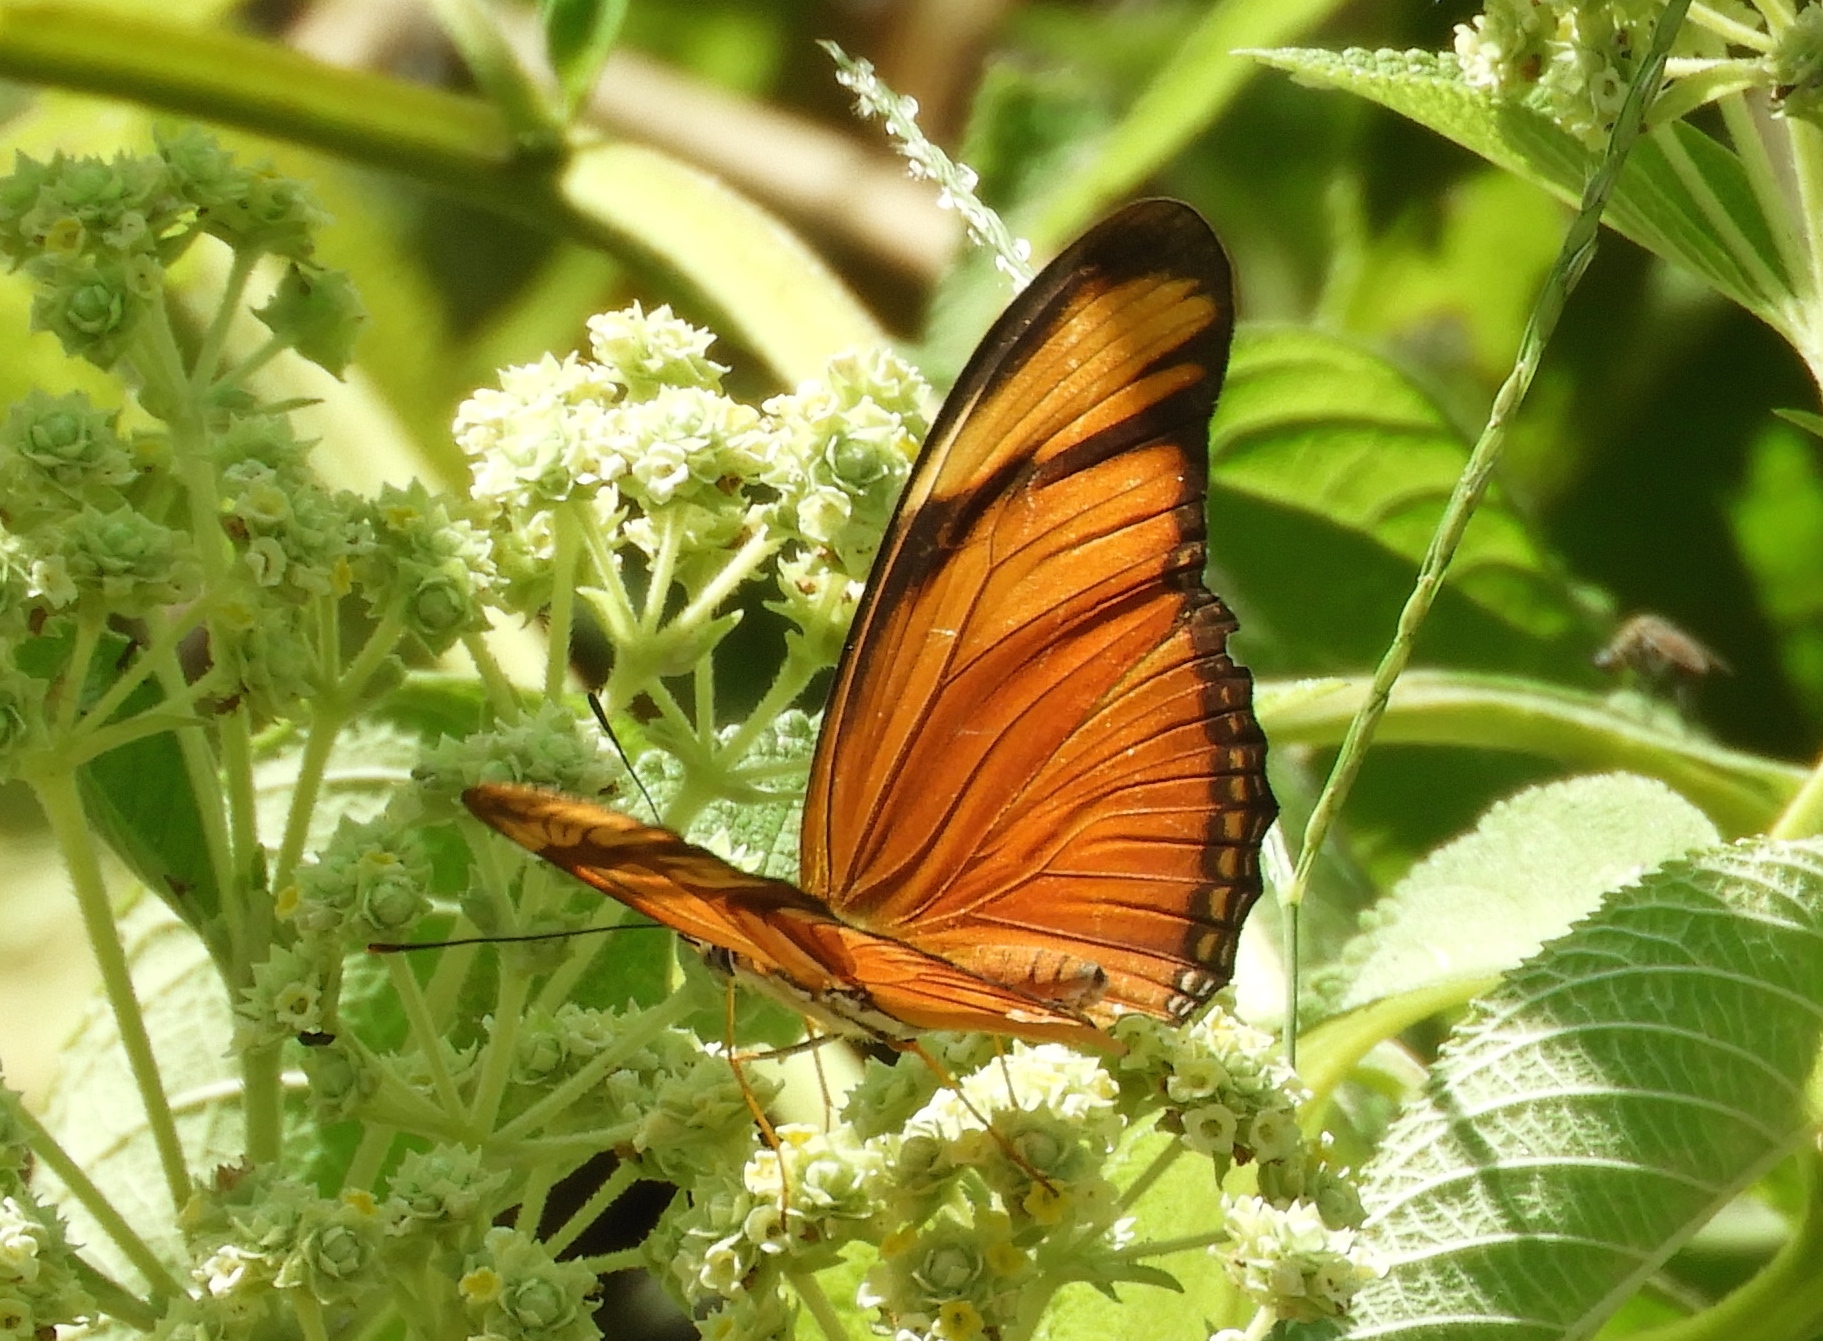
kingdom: Animalia
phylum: Arthropoda
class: Insecta
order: Lepidoptera
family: Nymphalidae
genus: Dryas
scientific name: Dryas iulia
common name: Flambeau
